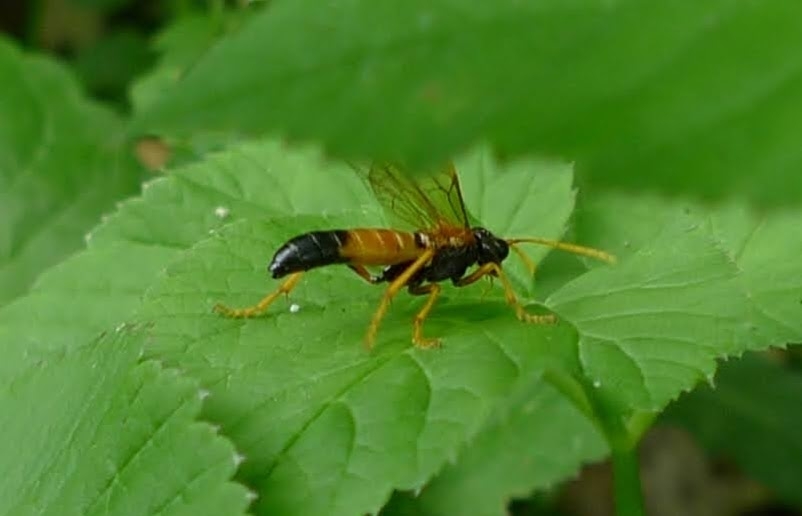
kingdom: Animalia
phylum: Arthropoda
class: Insecta
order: Hymenoptera
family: Tenthredinidae
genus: Tenthredo
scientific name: Tenthredo campestris
